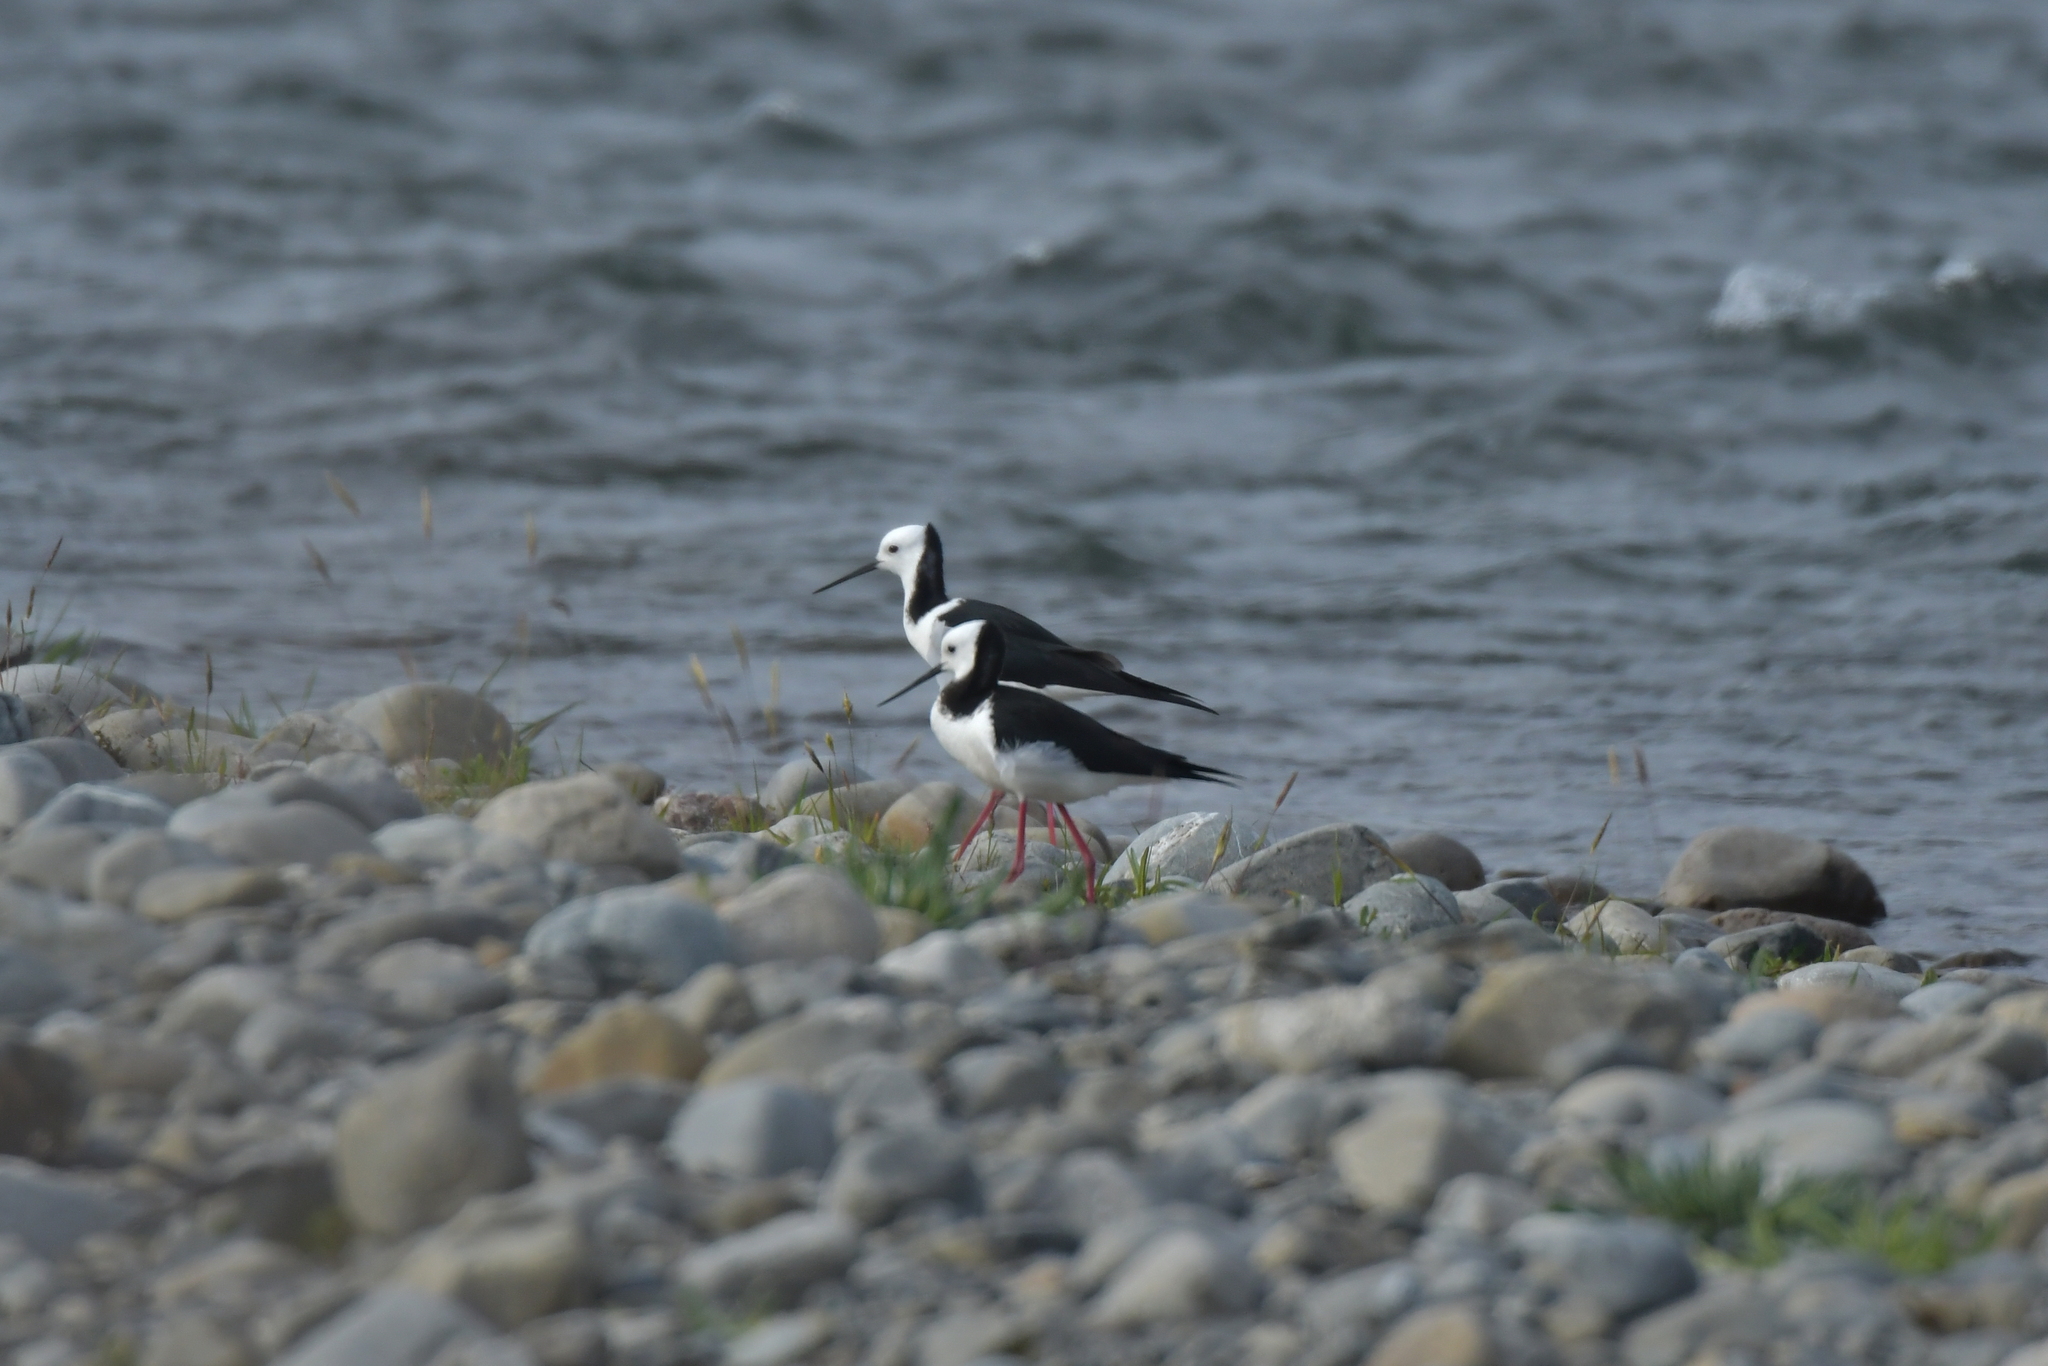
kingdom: Animalia
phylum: Chordata
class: Aves
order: Charadriiformes
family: Recurvirostridae
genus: Himantopus
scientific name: Himantopus leucocephalus
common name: White-headed stilt
